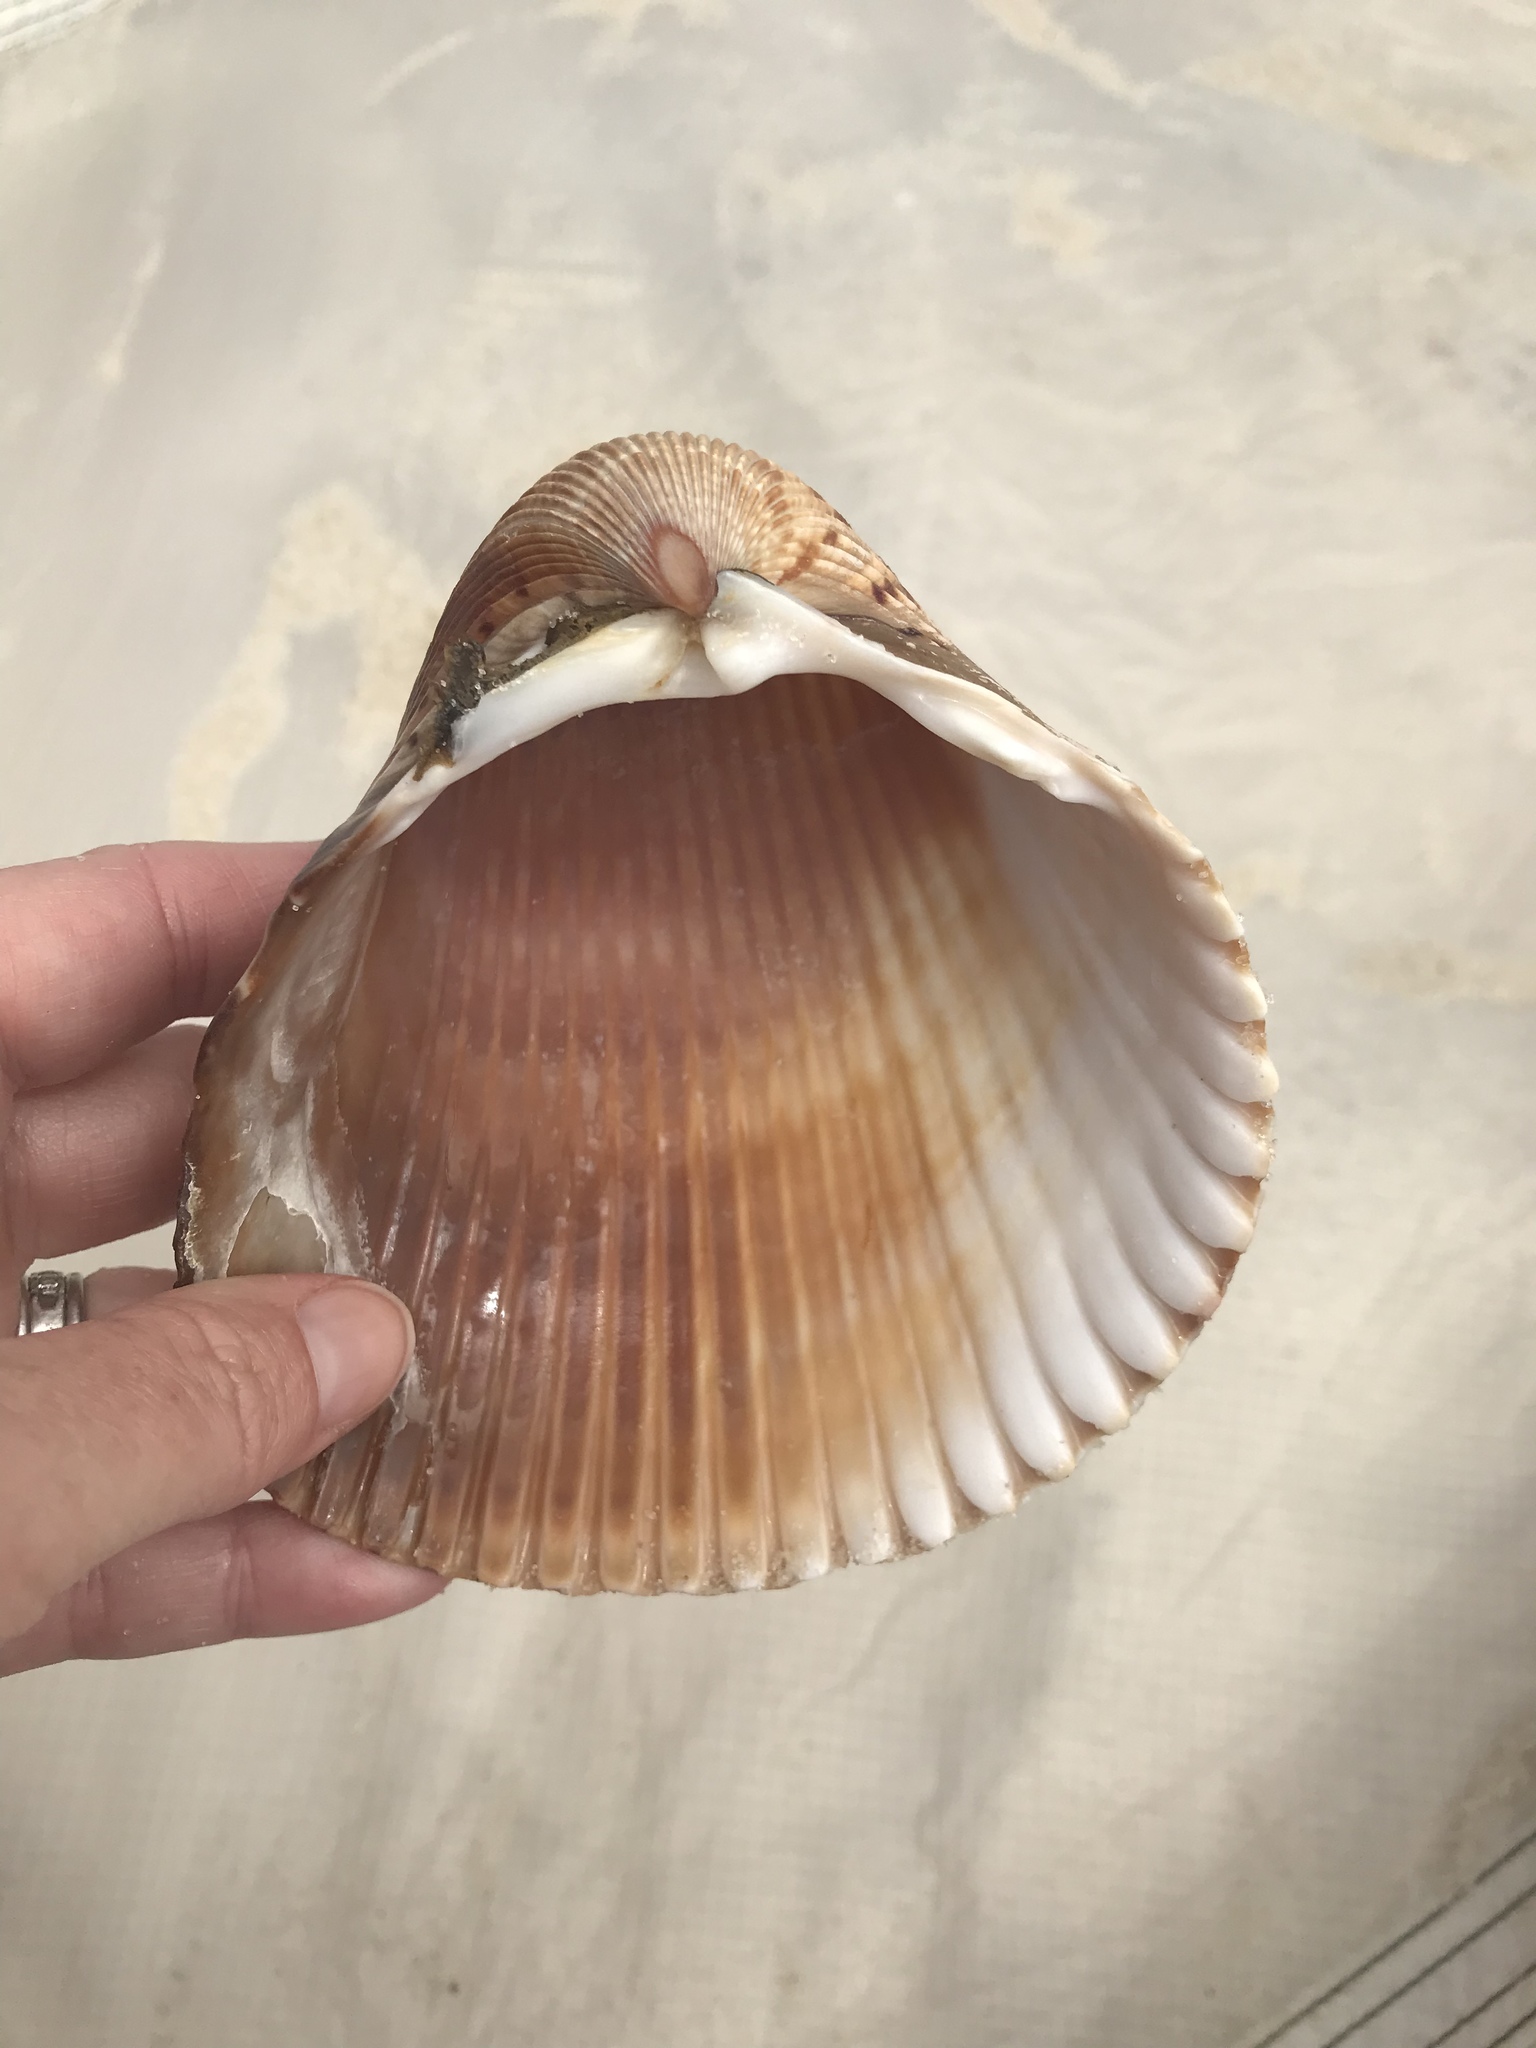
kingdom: Animalia
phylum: Mollusca
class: Bivalvia
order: Cardiida
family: Cardiidae
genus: Dinocardium
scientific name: Dinocardium robustum
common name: Atlantic giant cockle
